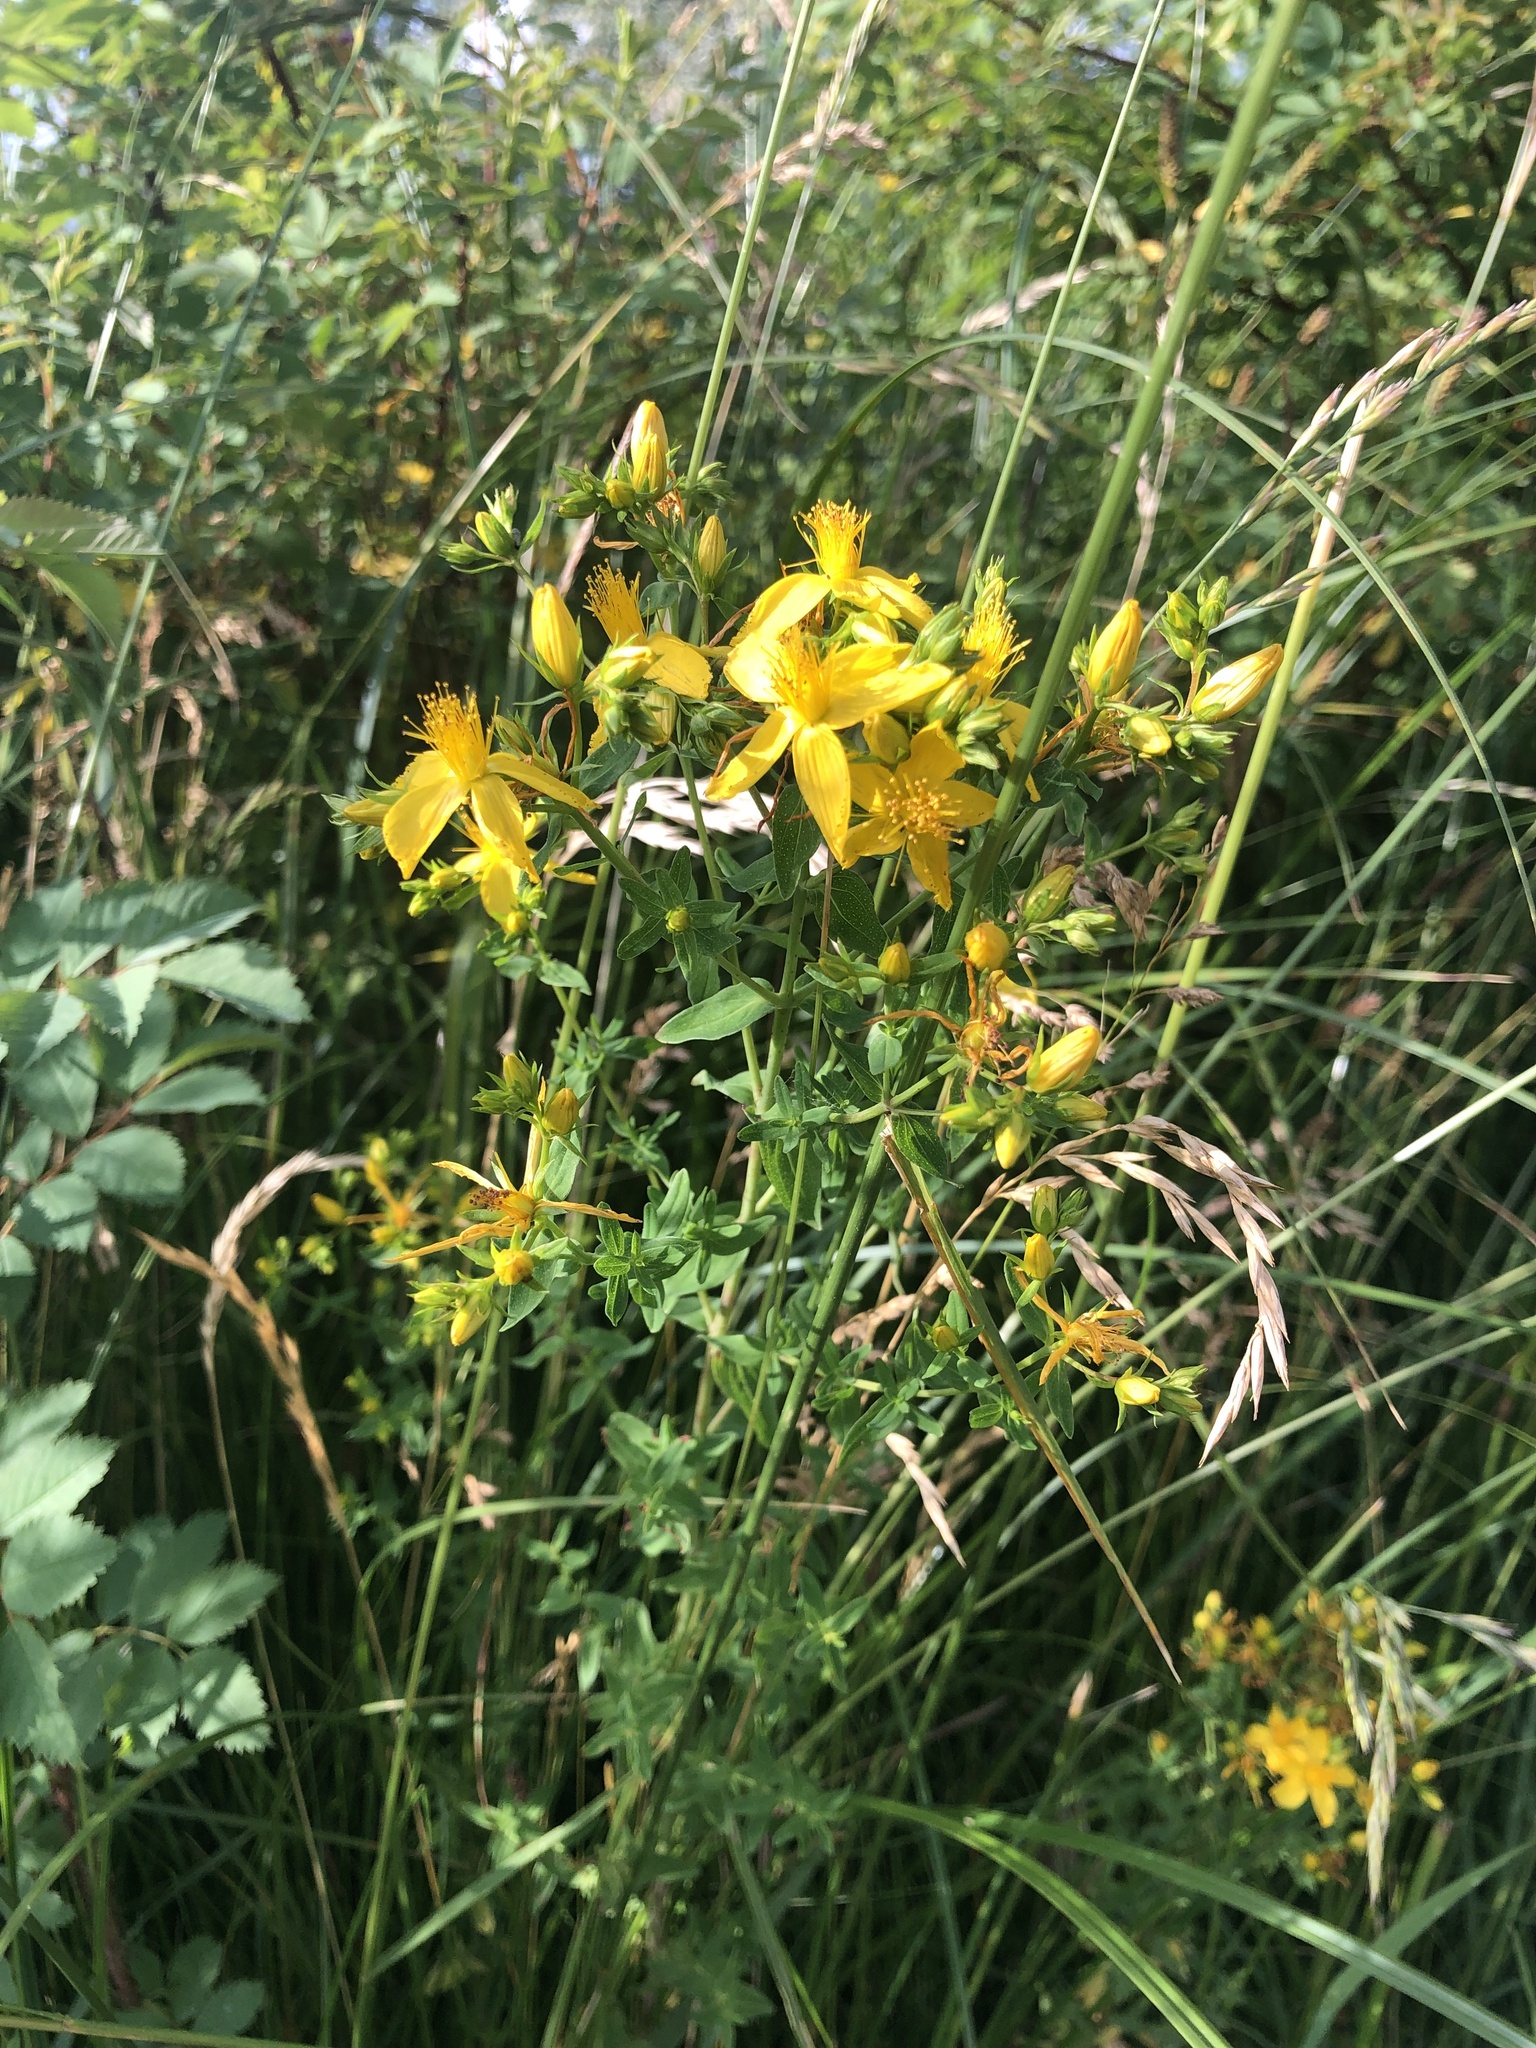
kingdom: Plantae
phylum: Tracheophyta
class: Magnoliopsida
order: Malpighiales
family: Hypericaceae
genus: Hypericum
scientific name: Hypericum perforatum
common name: Common st. johnswort
